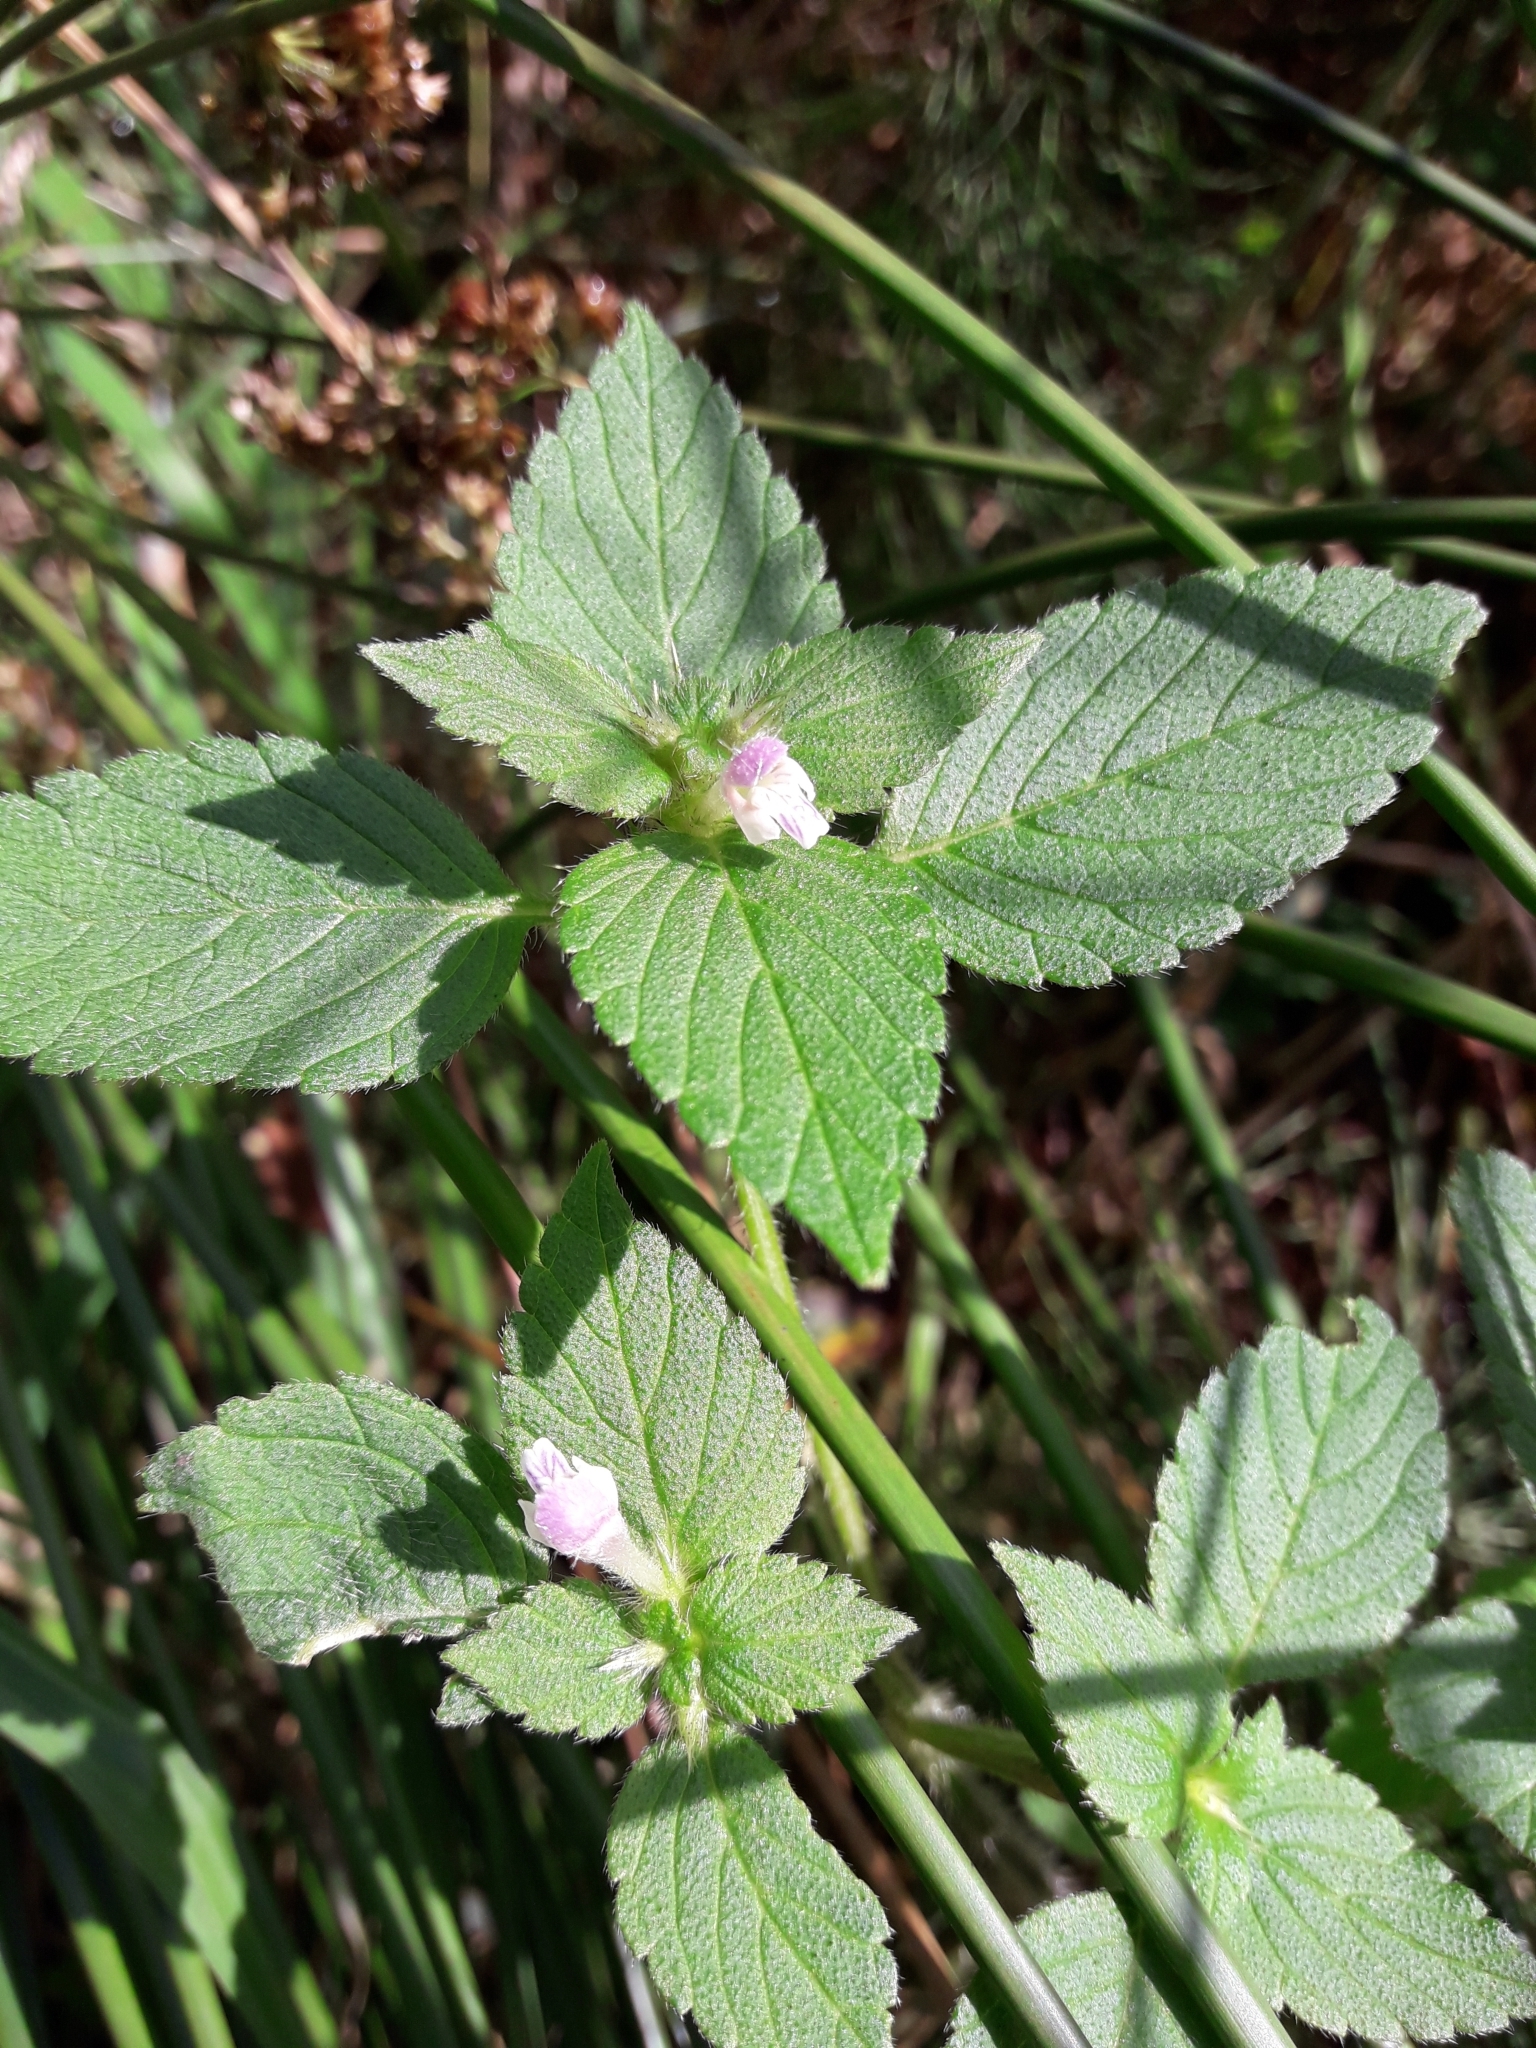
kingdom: Plantae
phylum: Tracheophyta
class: Magnoliopsida
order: Lamiales
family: Lamiaceae
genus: Galeopsis
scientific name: Galeopsis bifida
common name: Bifid hemp-nettle
